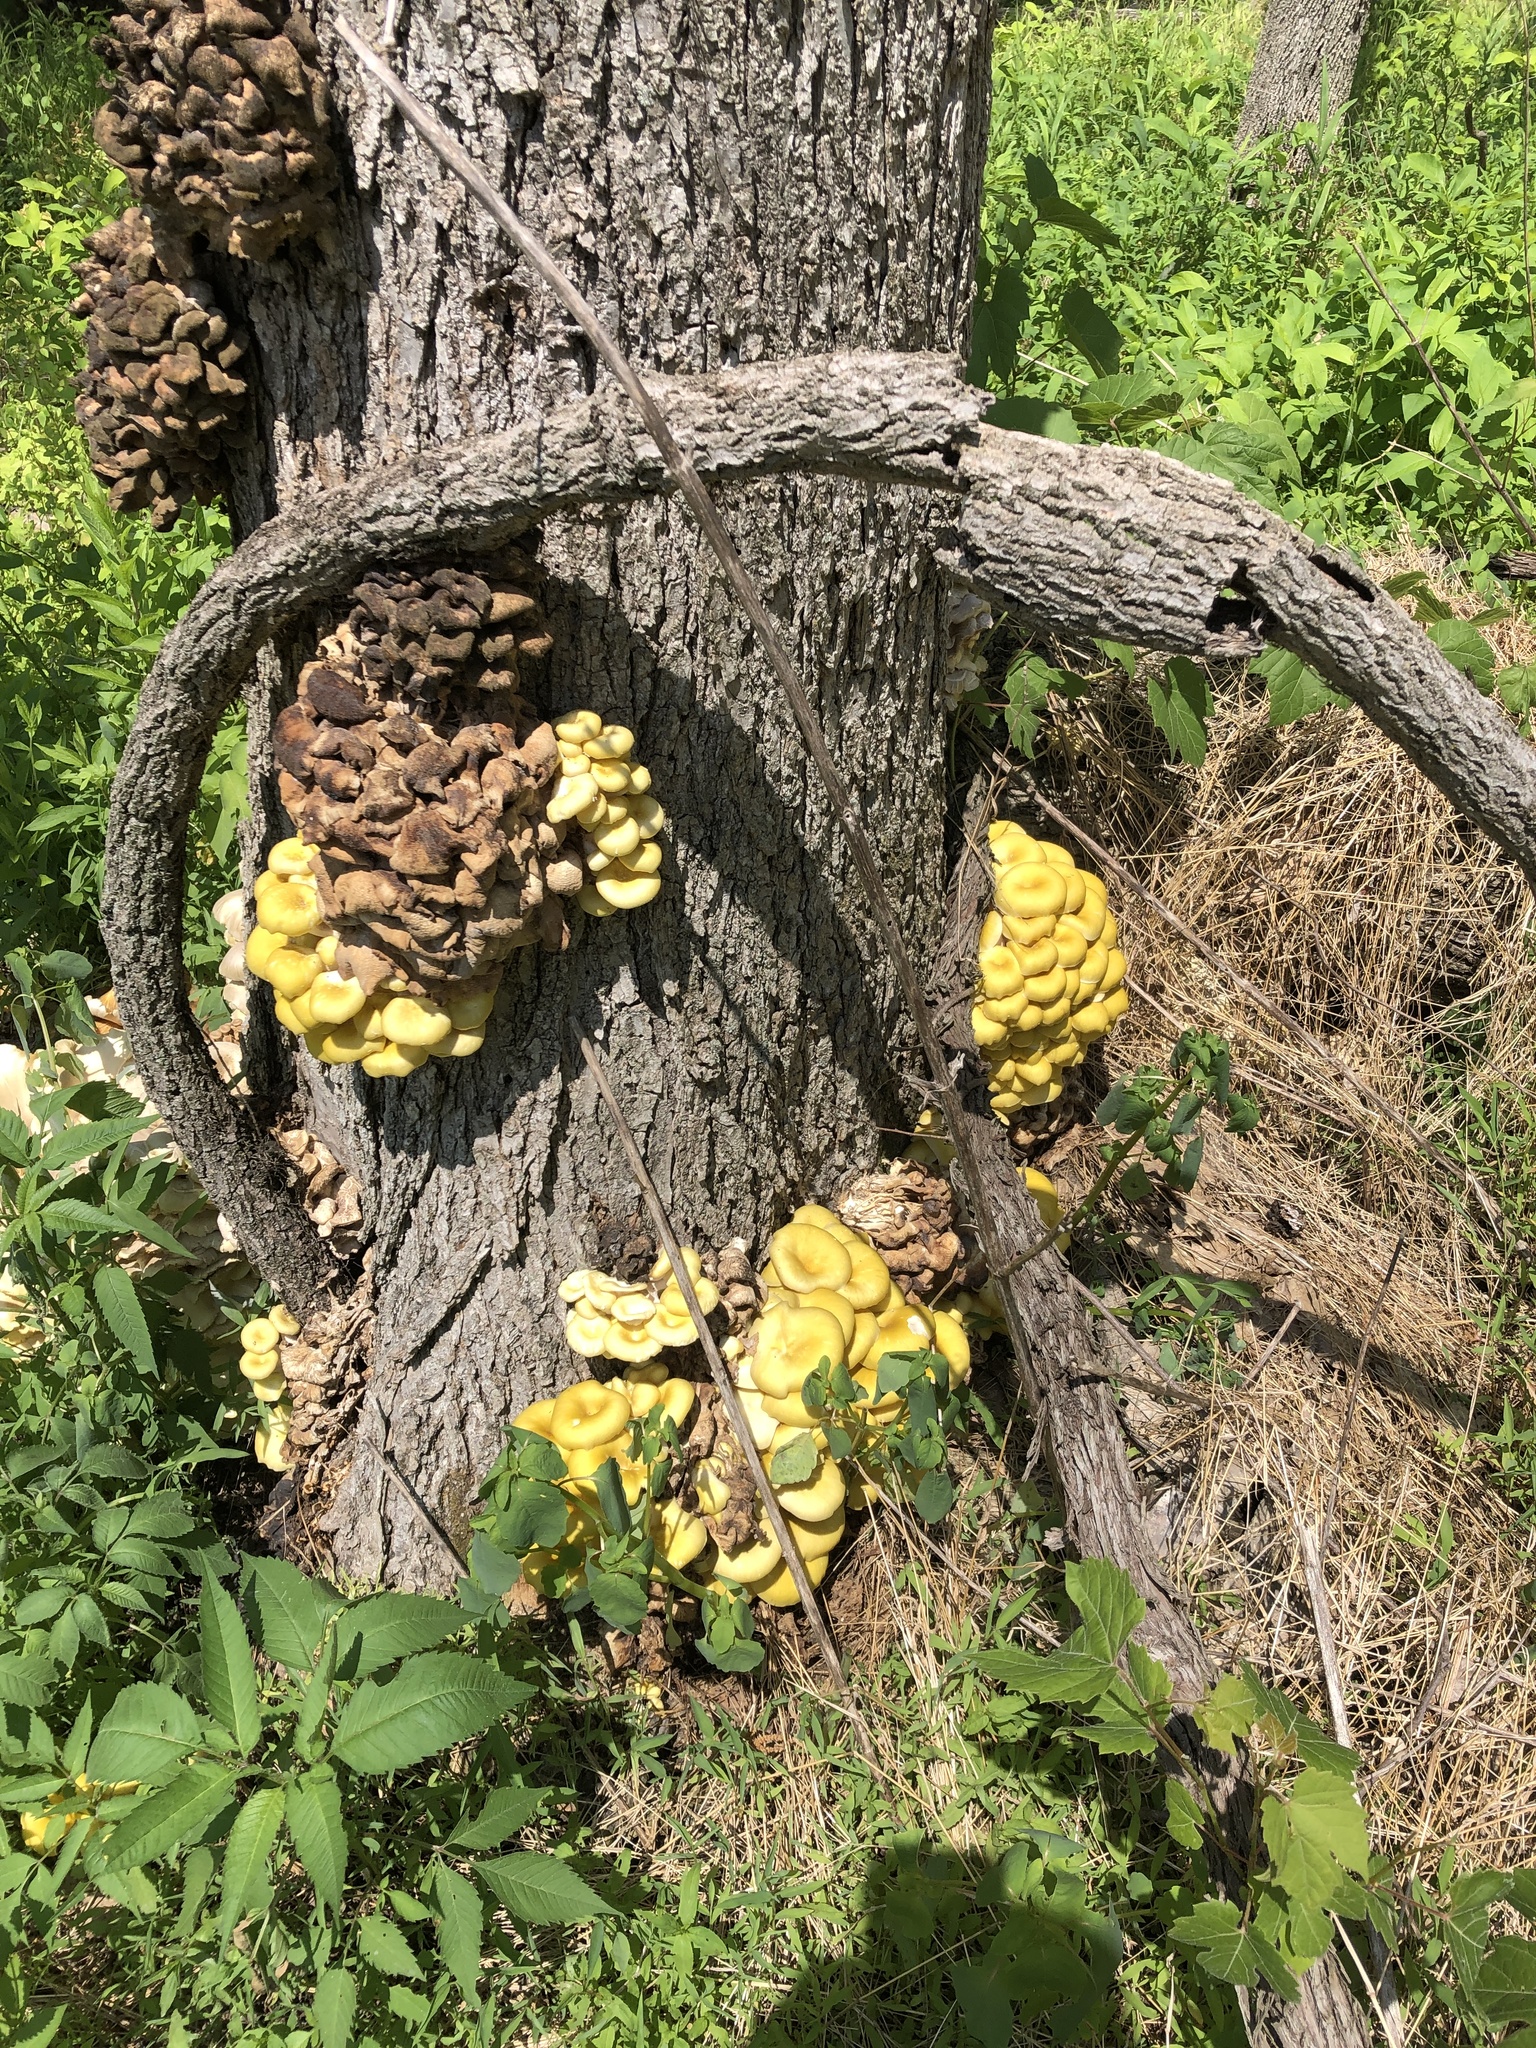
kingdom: Fungi
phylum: Basidiomycota
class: Agaricomycetes
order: Agaricales
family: Pleurotaceae
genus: Pleurotus
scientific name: Pleurotus citrinopileatus
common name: Golden oyster mushroom
